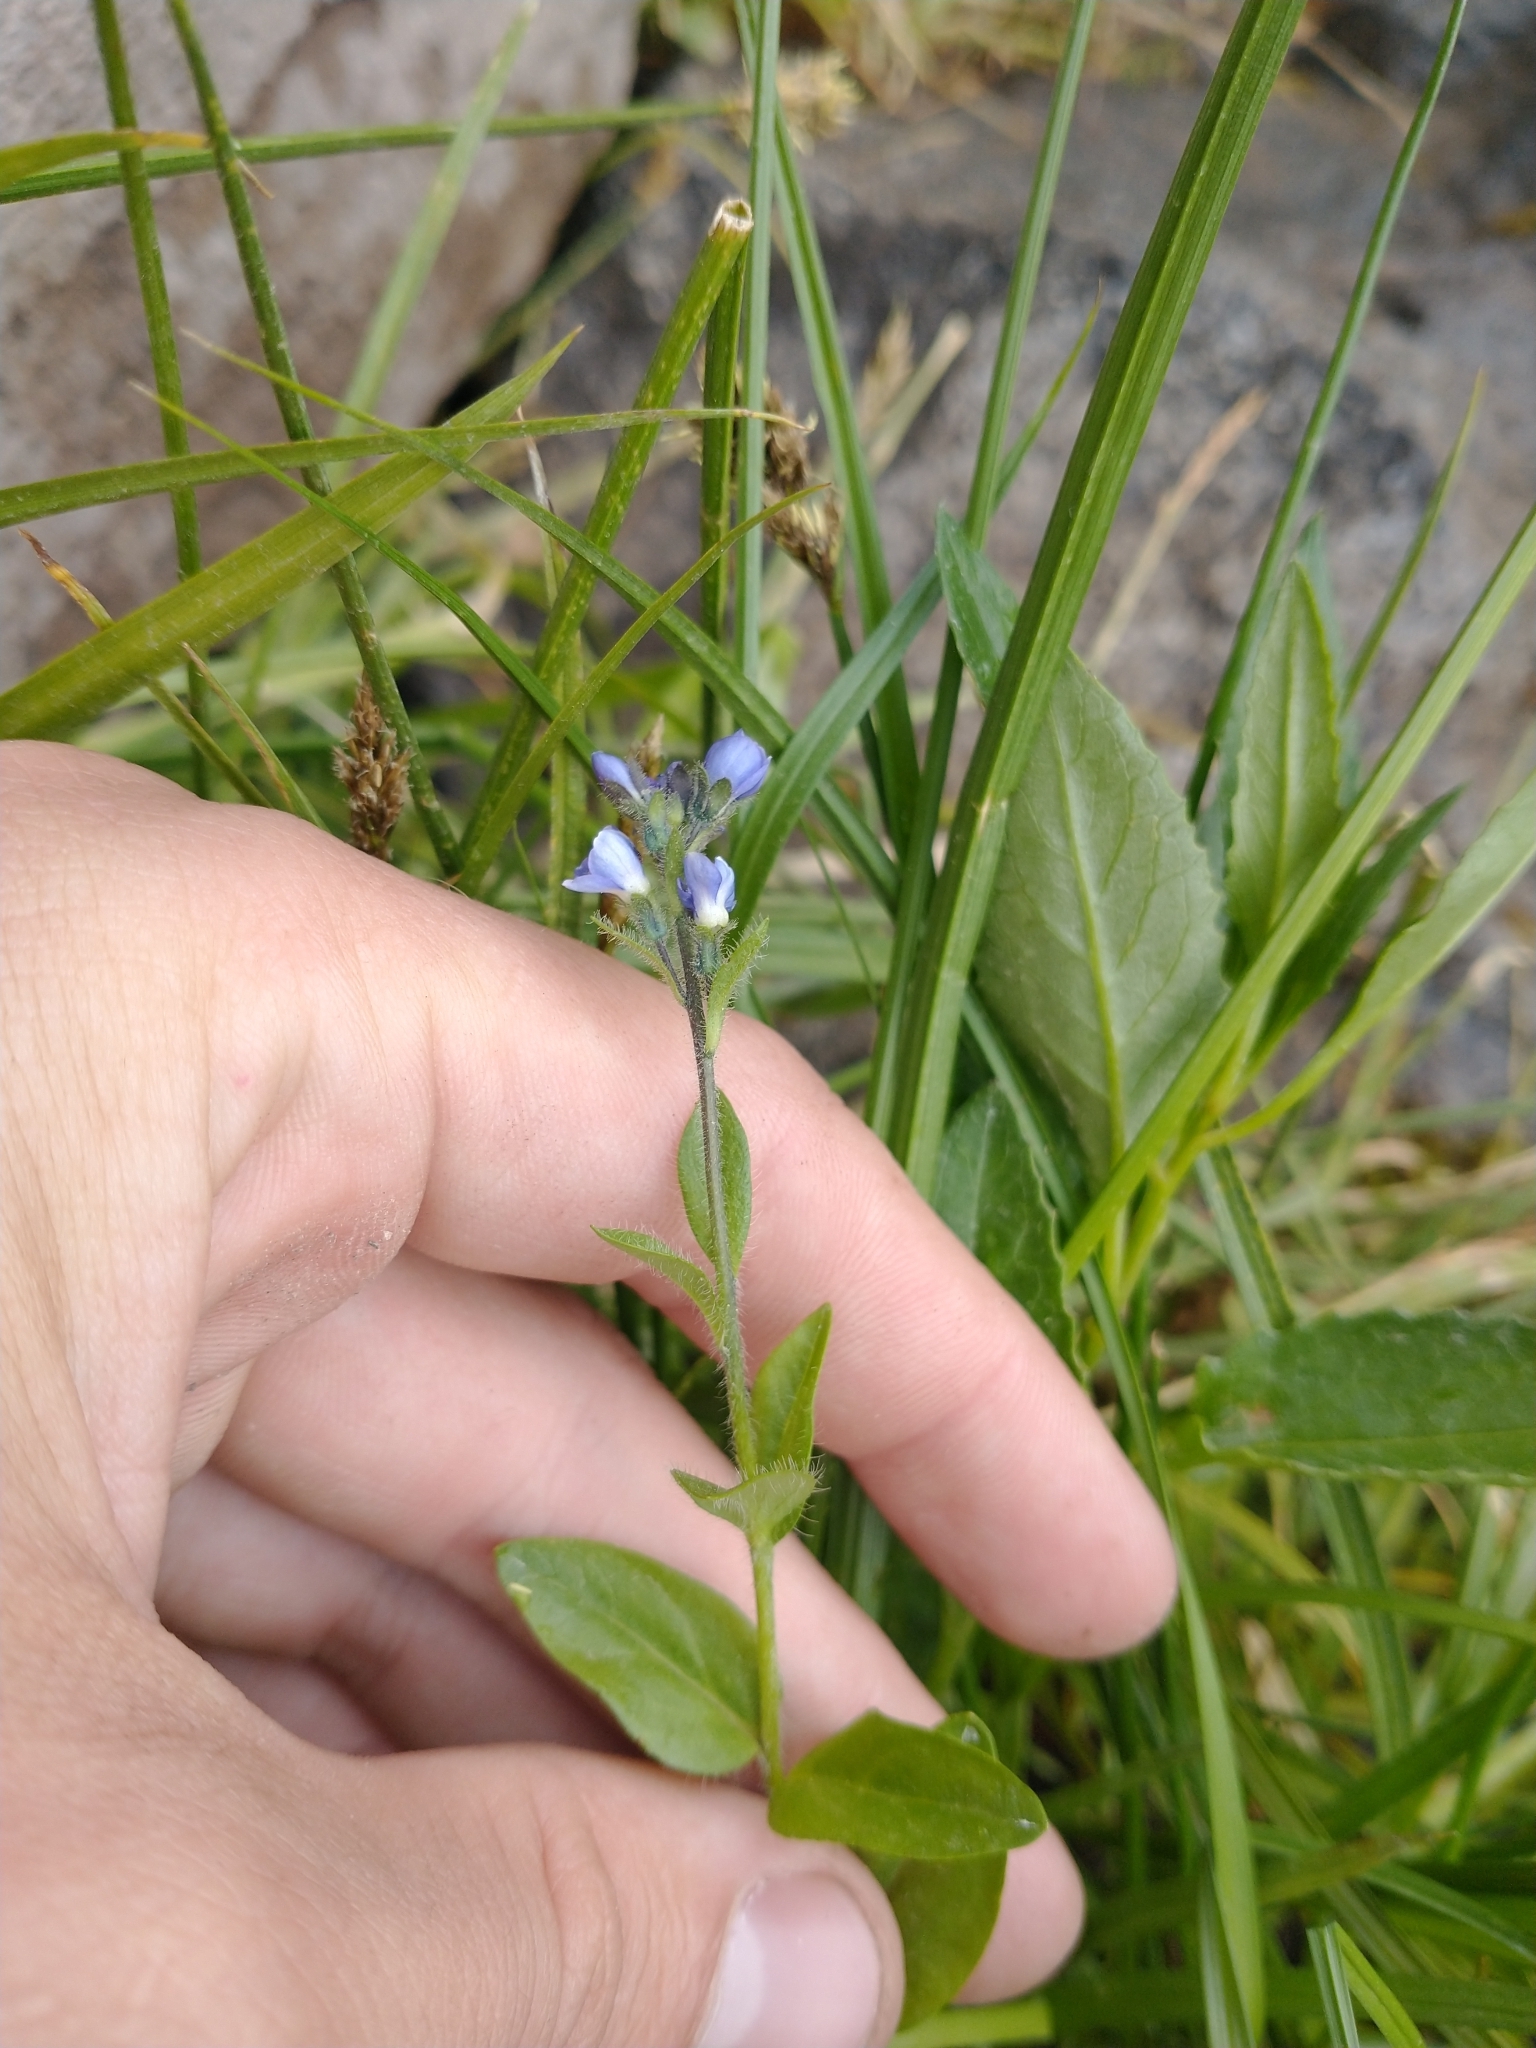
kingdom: Plantae
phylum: Tracheophyta
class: Magnoliopsida
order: Lamiales
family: Plantaginaceae
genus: Veronica
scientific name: Veronica wormskjoldii
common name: American alpine speedwell
